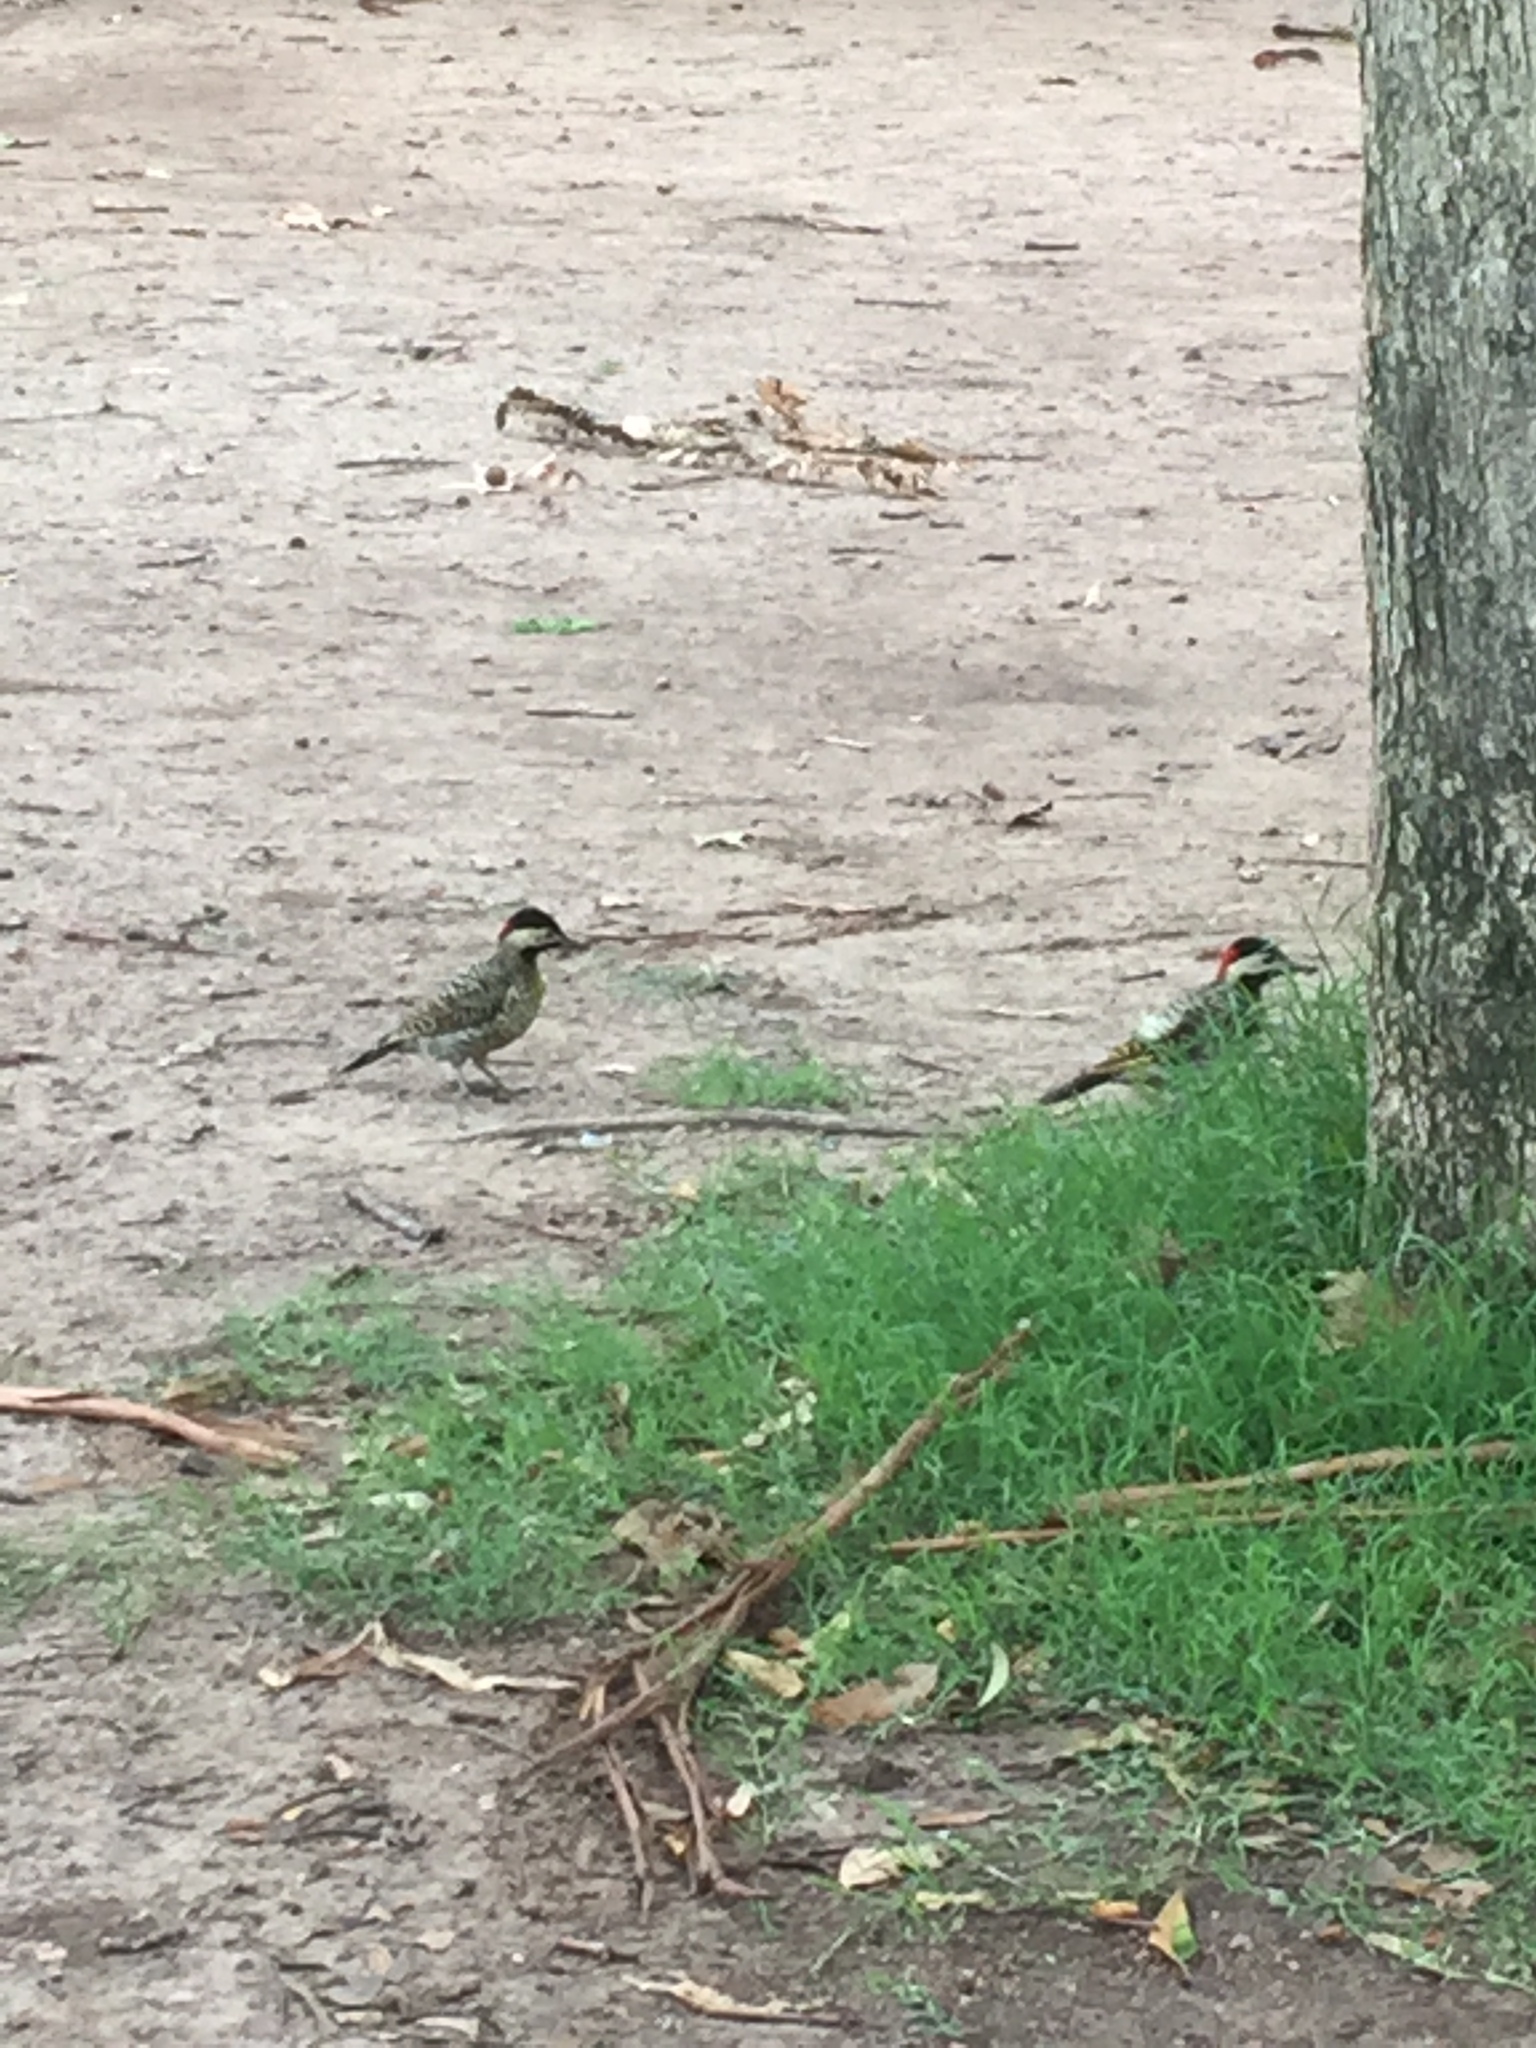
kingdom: Animalia
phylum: Chordata
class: Aves
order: Piciformes
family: Picidae
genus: Colaptes
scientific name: Colaptes melanochloros
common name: Green-barred woodpecker
